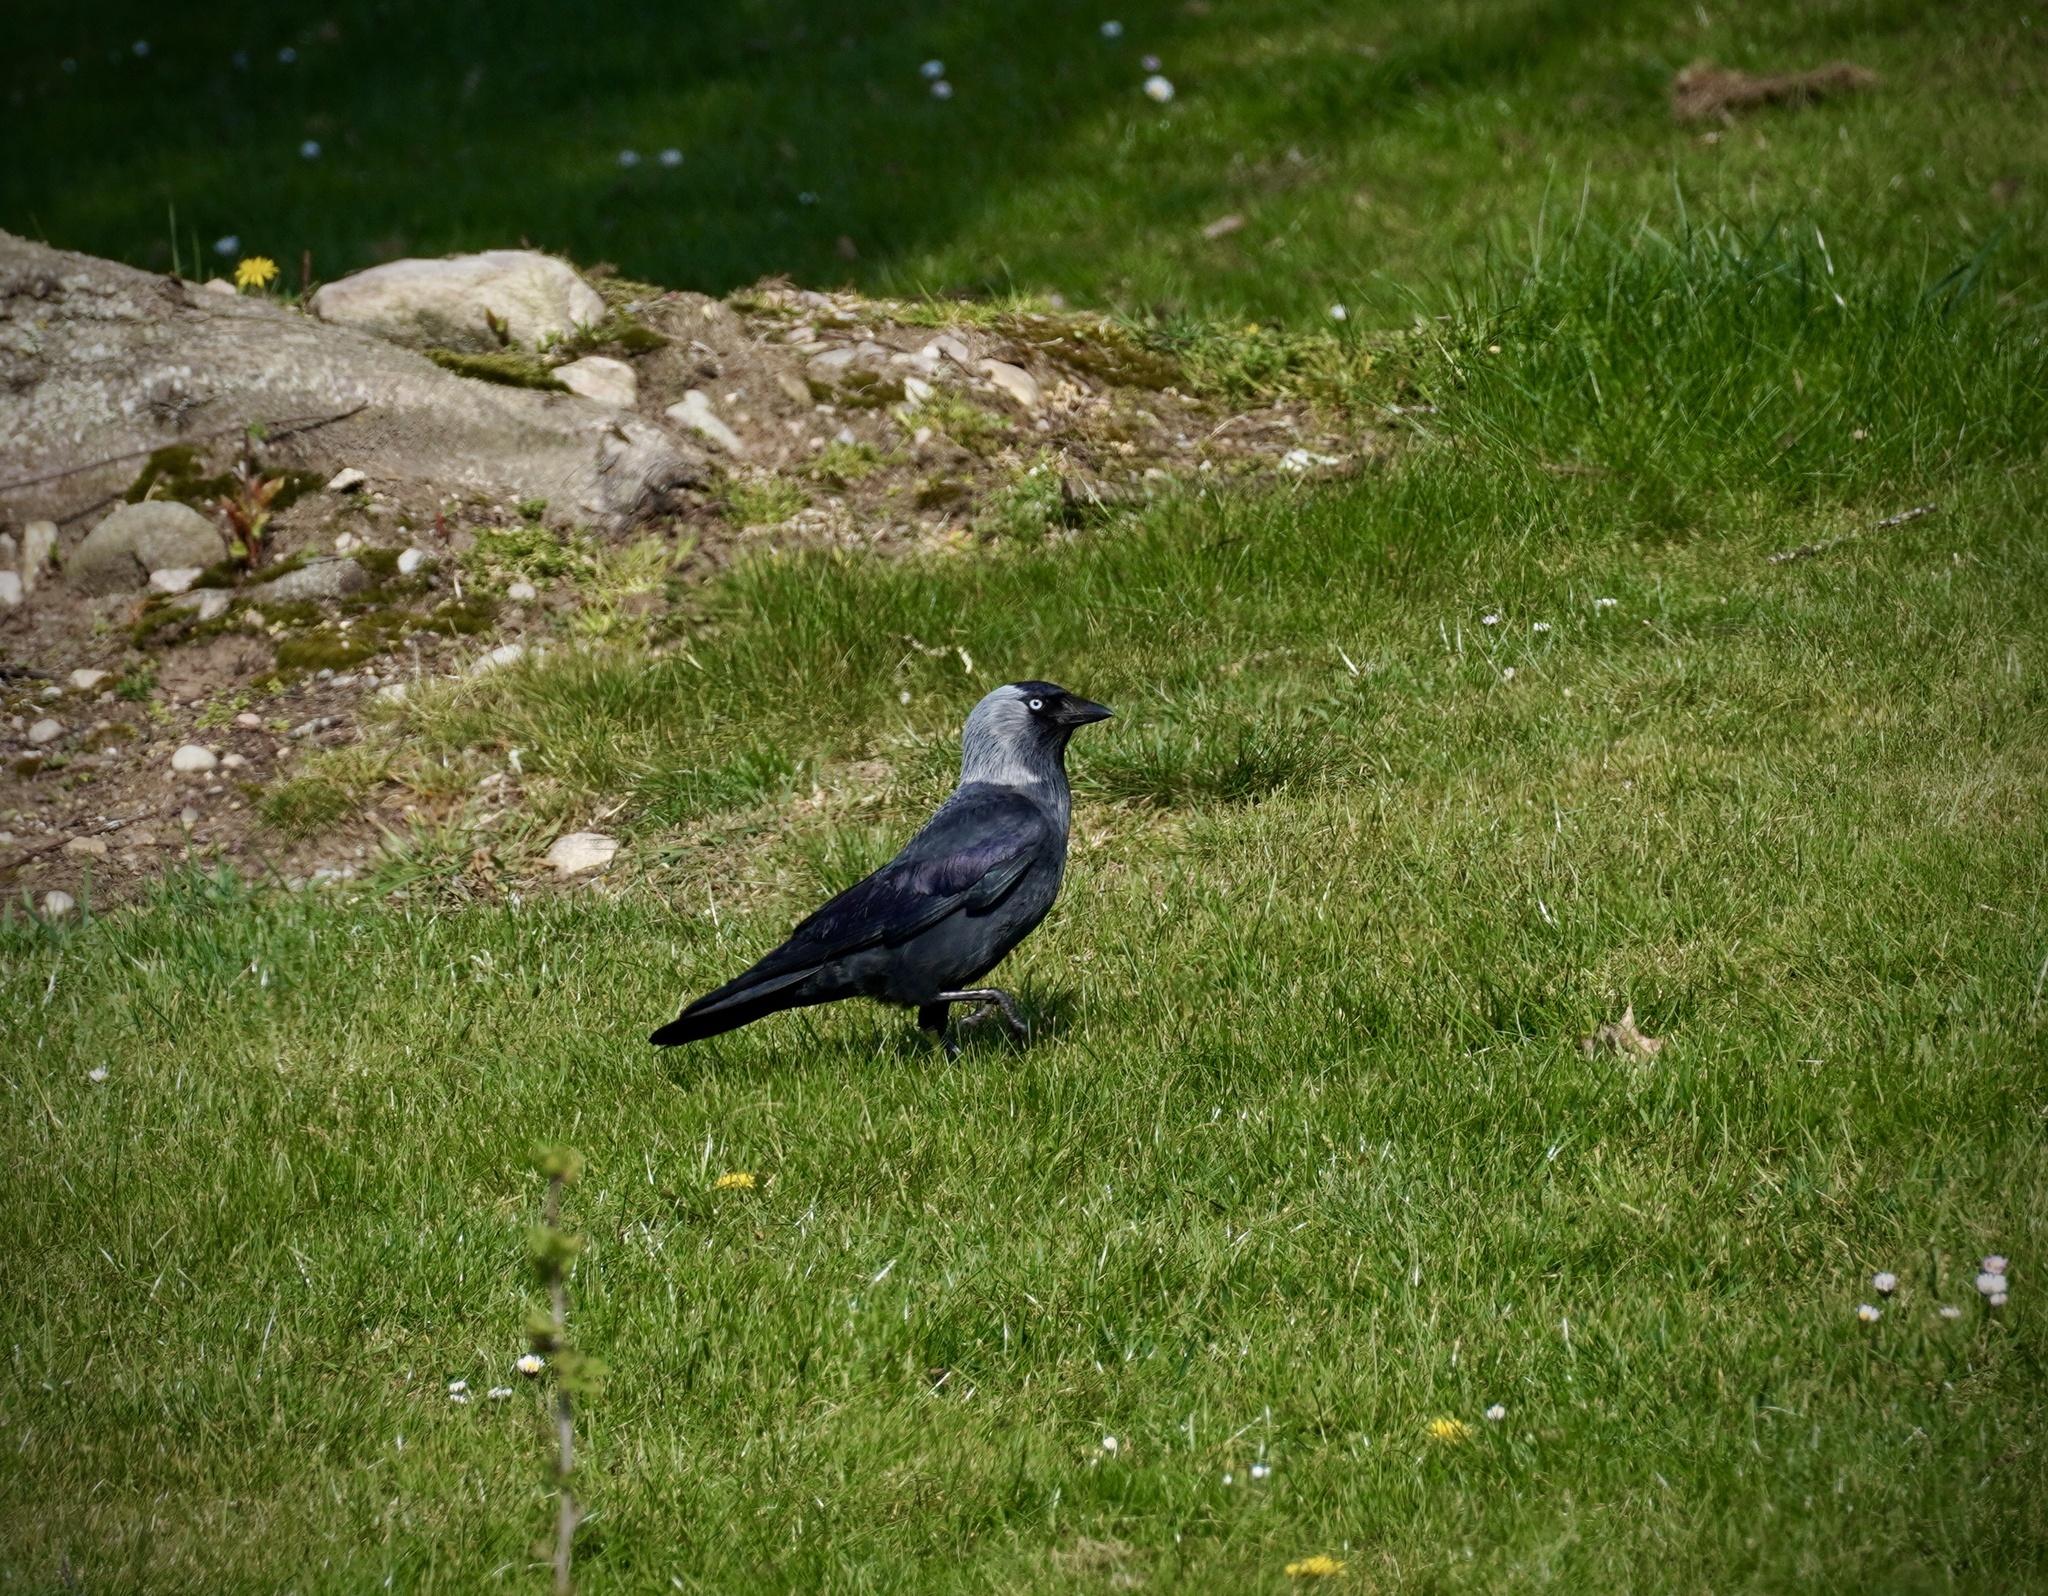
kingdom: Animalia
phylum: Chordata
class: Aves
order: Passeriformes
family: Corvidae
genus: Coloeus
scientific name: Coloeus monedula
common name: Western jackdaw
